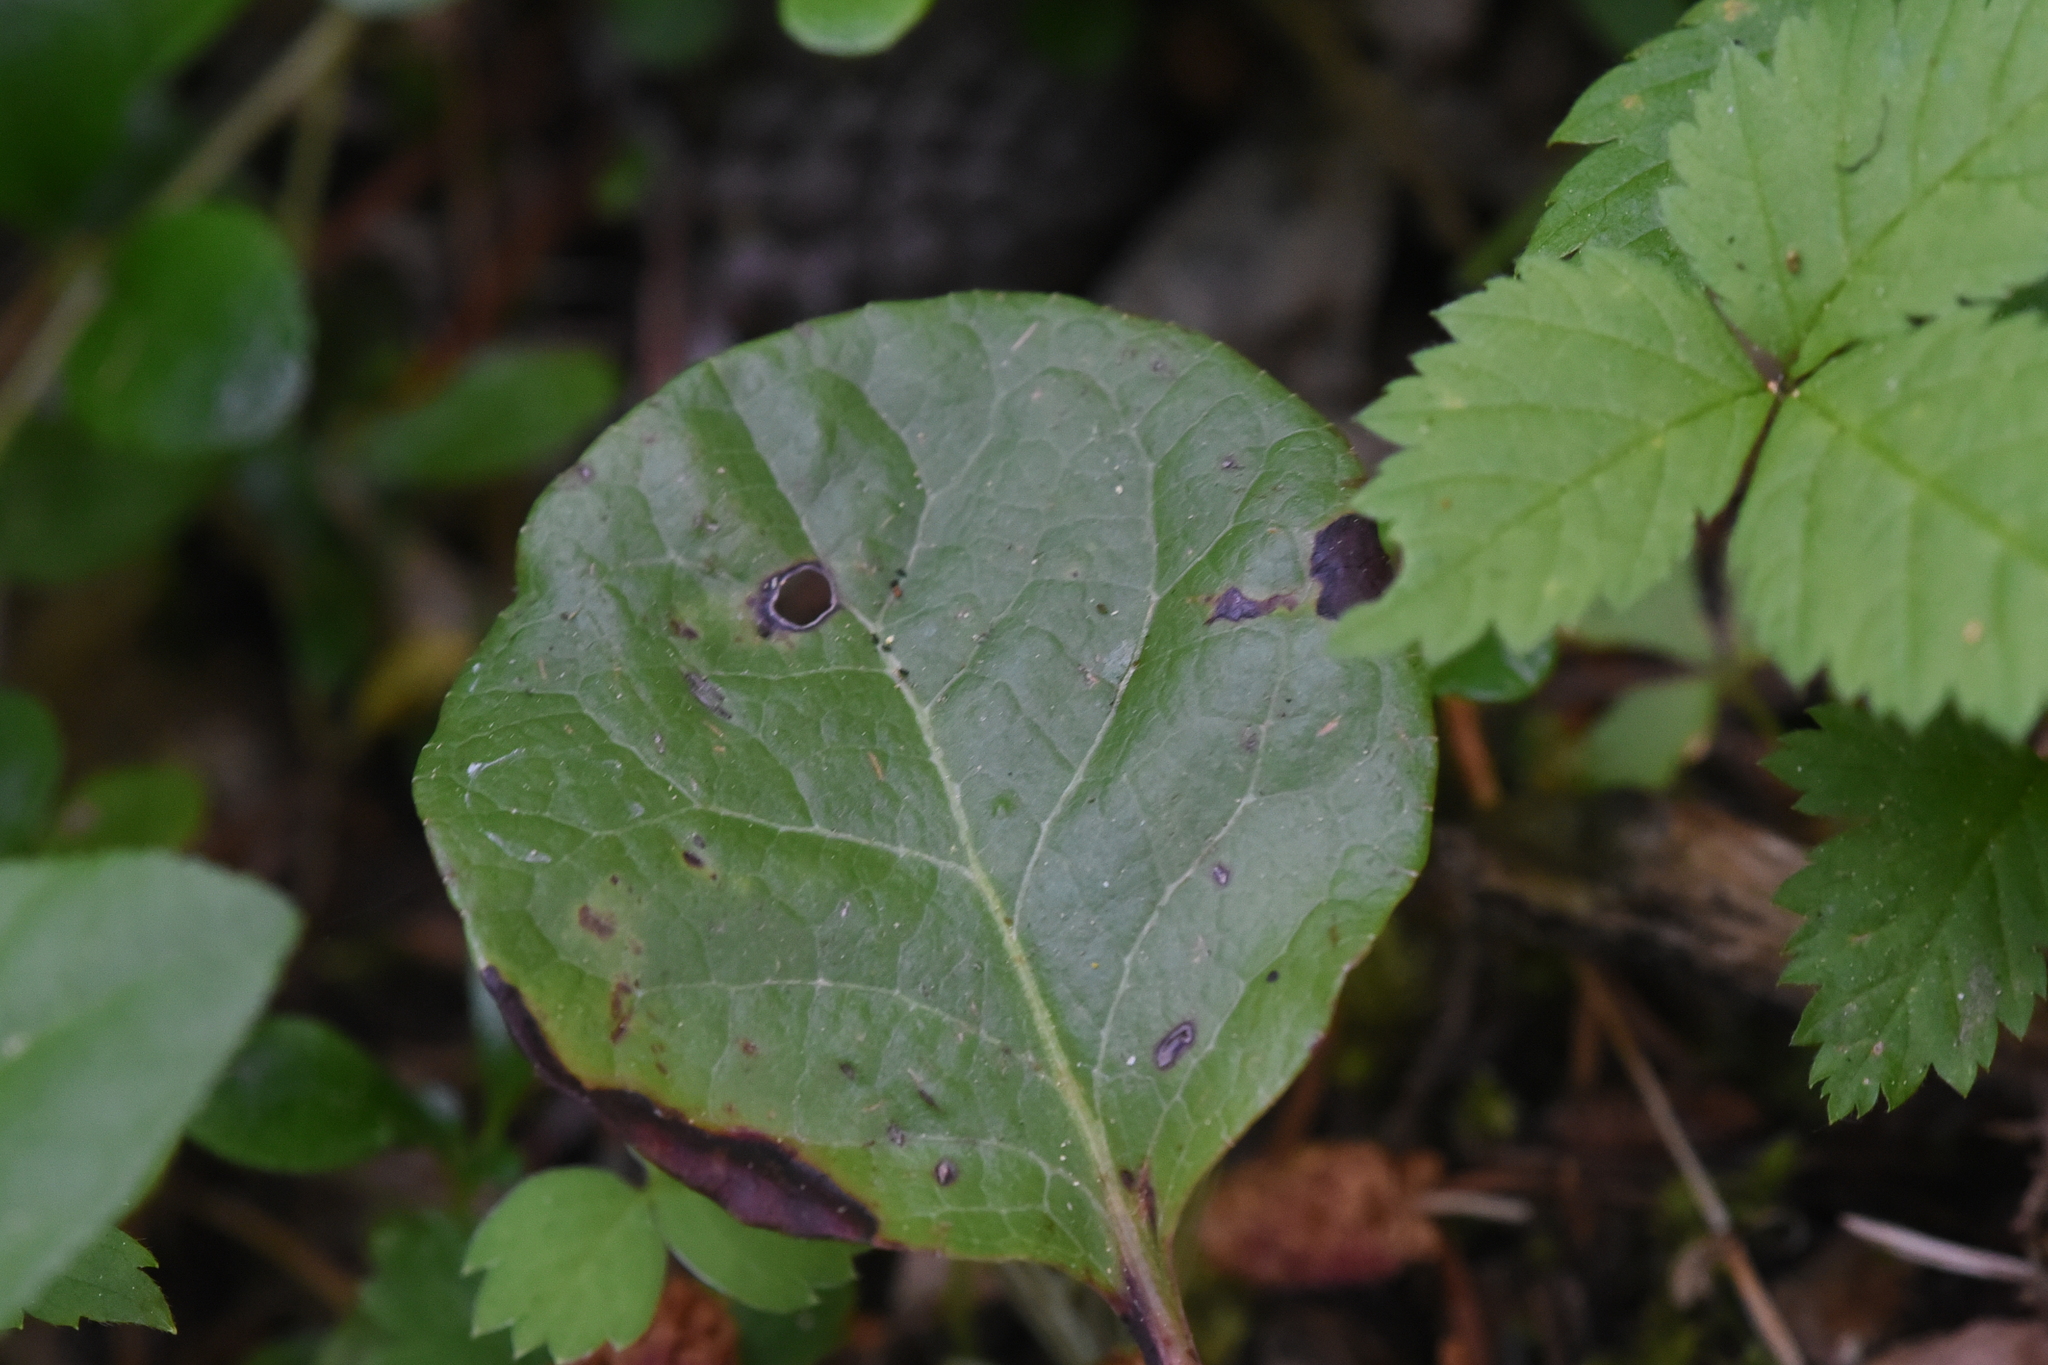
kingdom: Plantae
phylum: Tracheophyta
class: Magnoliopsida
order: Ericales
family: Ericaceae
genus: Pyrola
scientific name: Pyrola asarifolia
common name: Bog wintergreen
